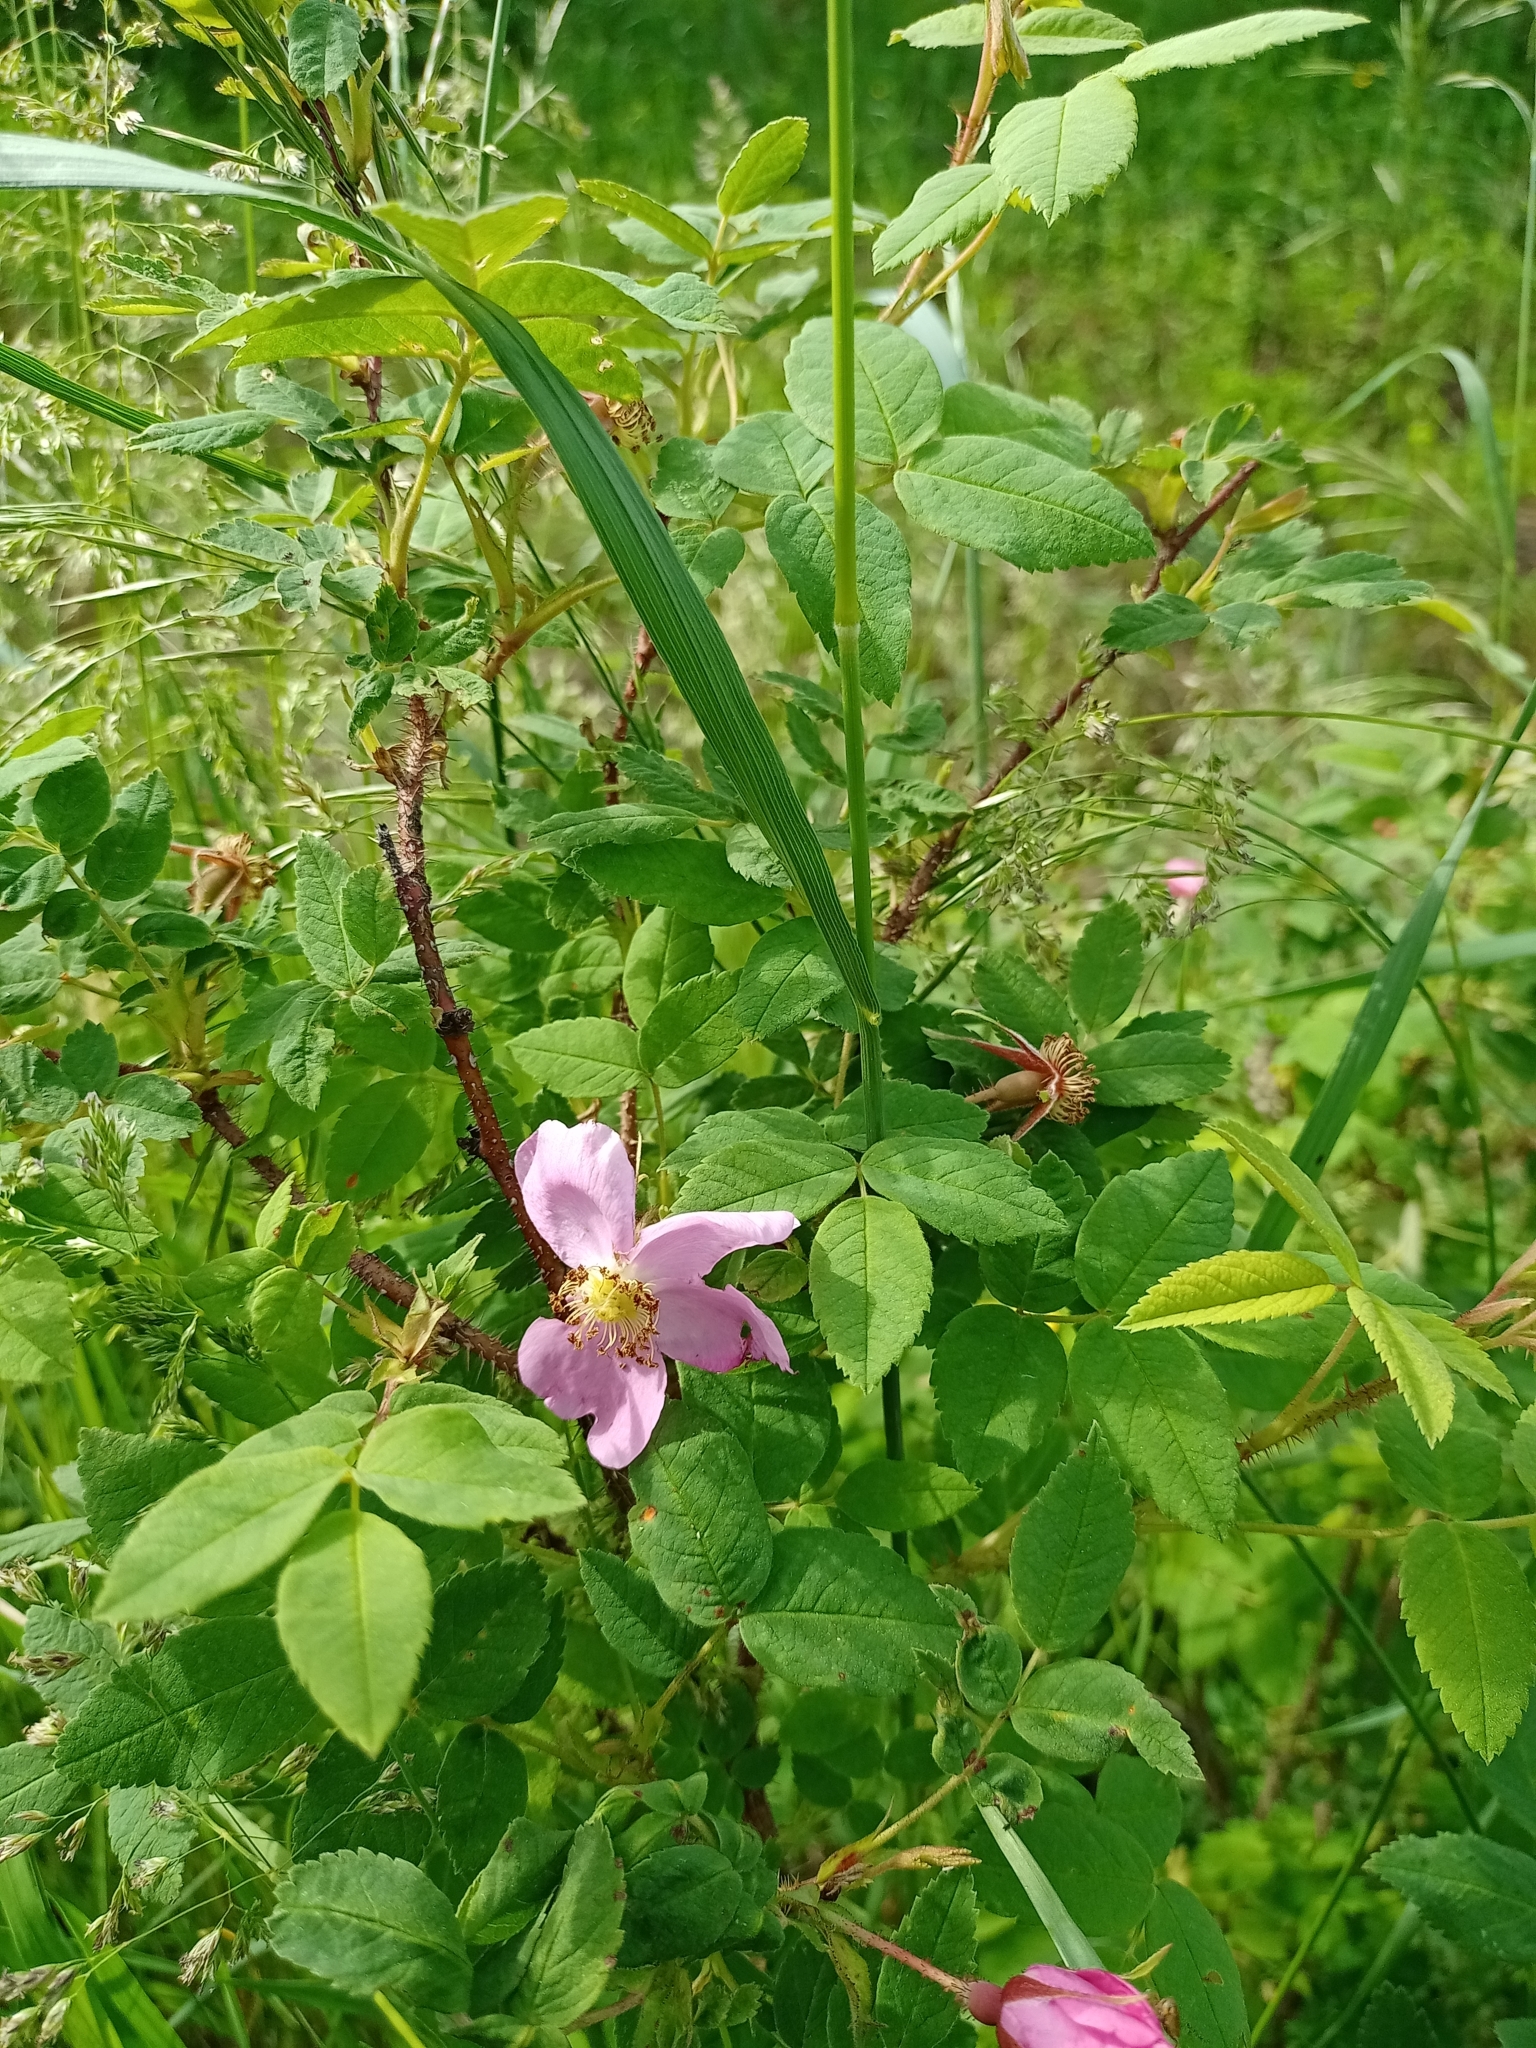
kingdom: Plantae
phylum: Tracheophyta
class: Magnoliopsida
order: Rosales
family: Rosaceae
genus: Rosa
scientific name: Rosa acicularis
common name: Prickly rose
